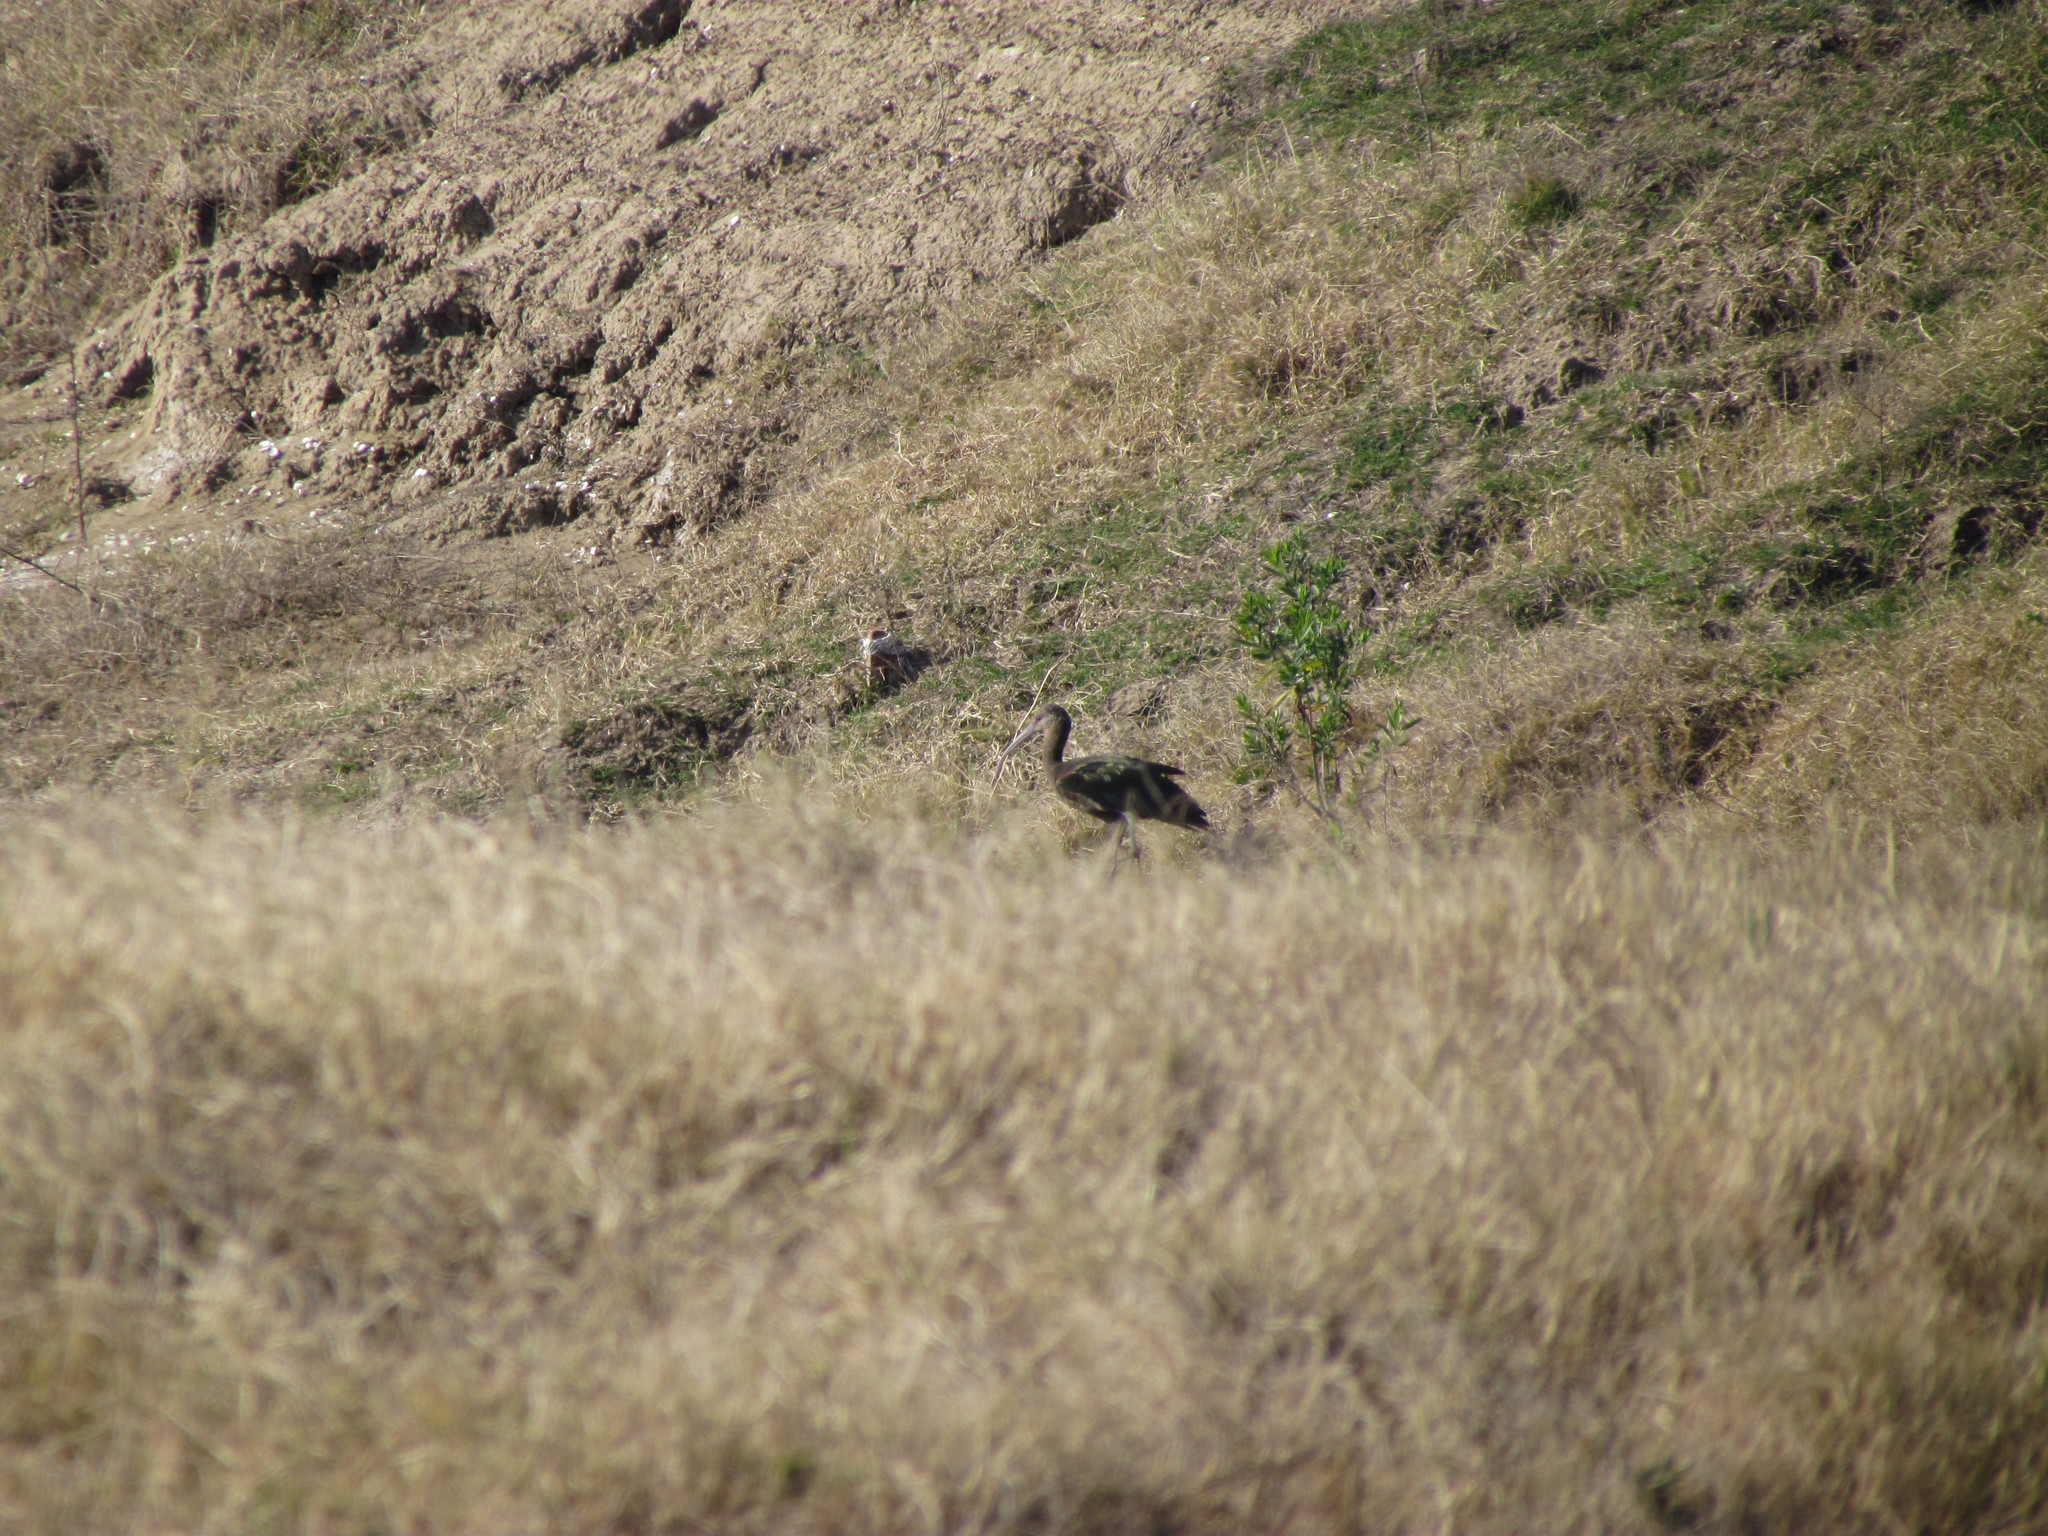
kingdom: Animalia
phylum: Chordata
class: Aves
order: Pelecaniformes
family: Threskiornithidae
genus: Plegadis
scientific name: Plegadis chihi
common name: White-faced ibis
